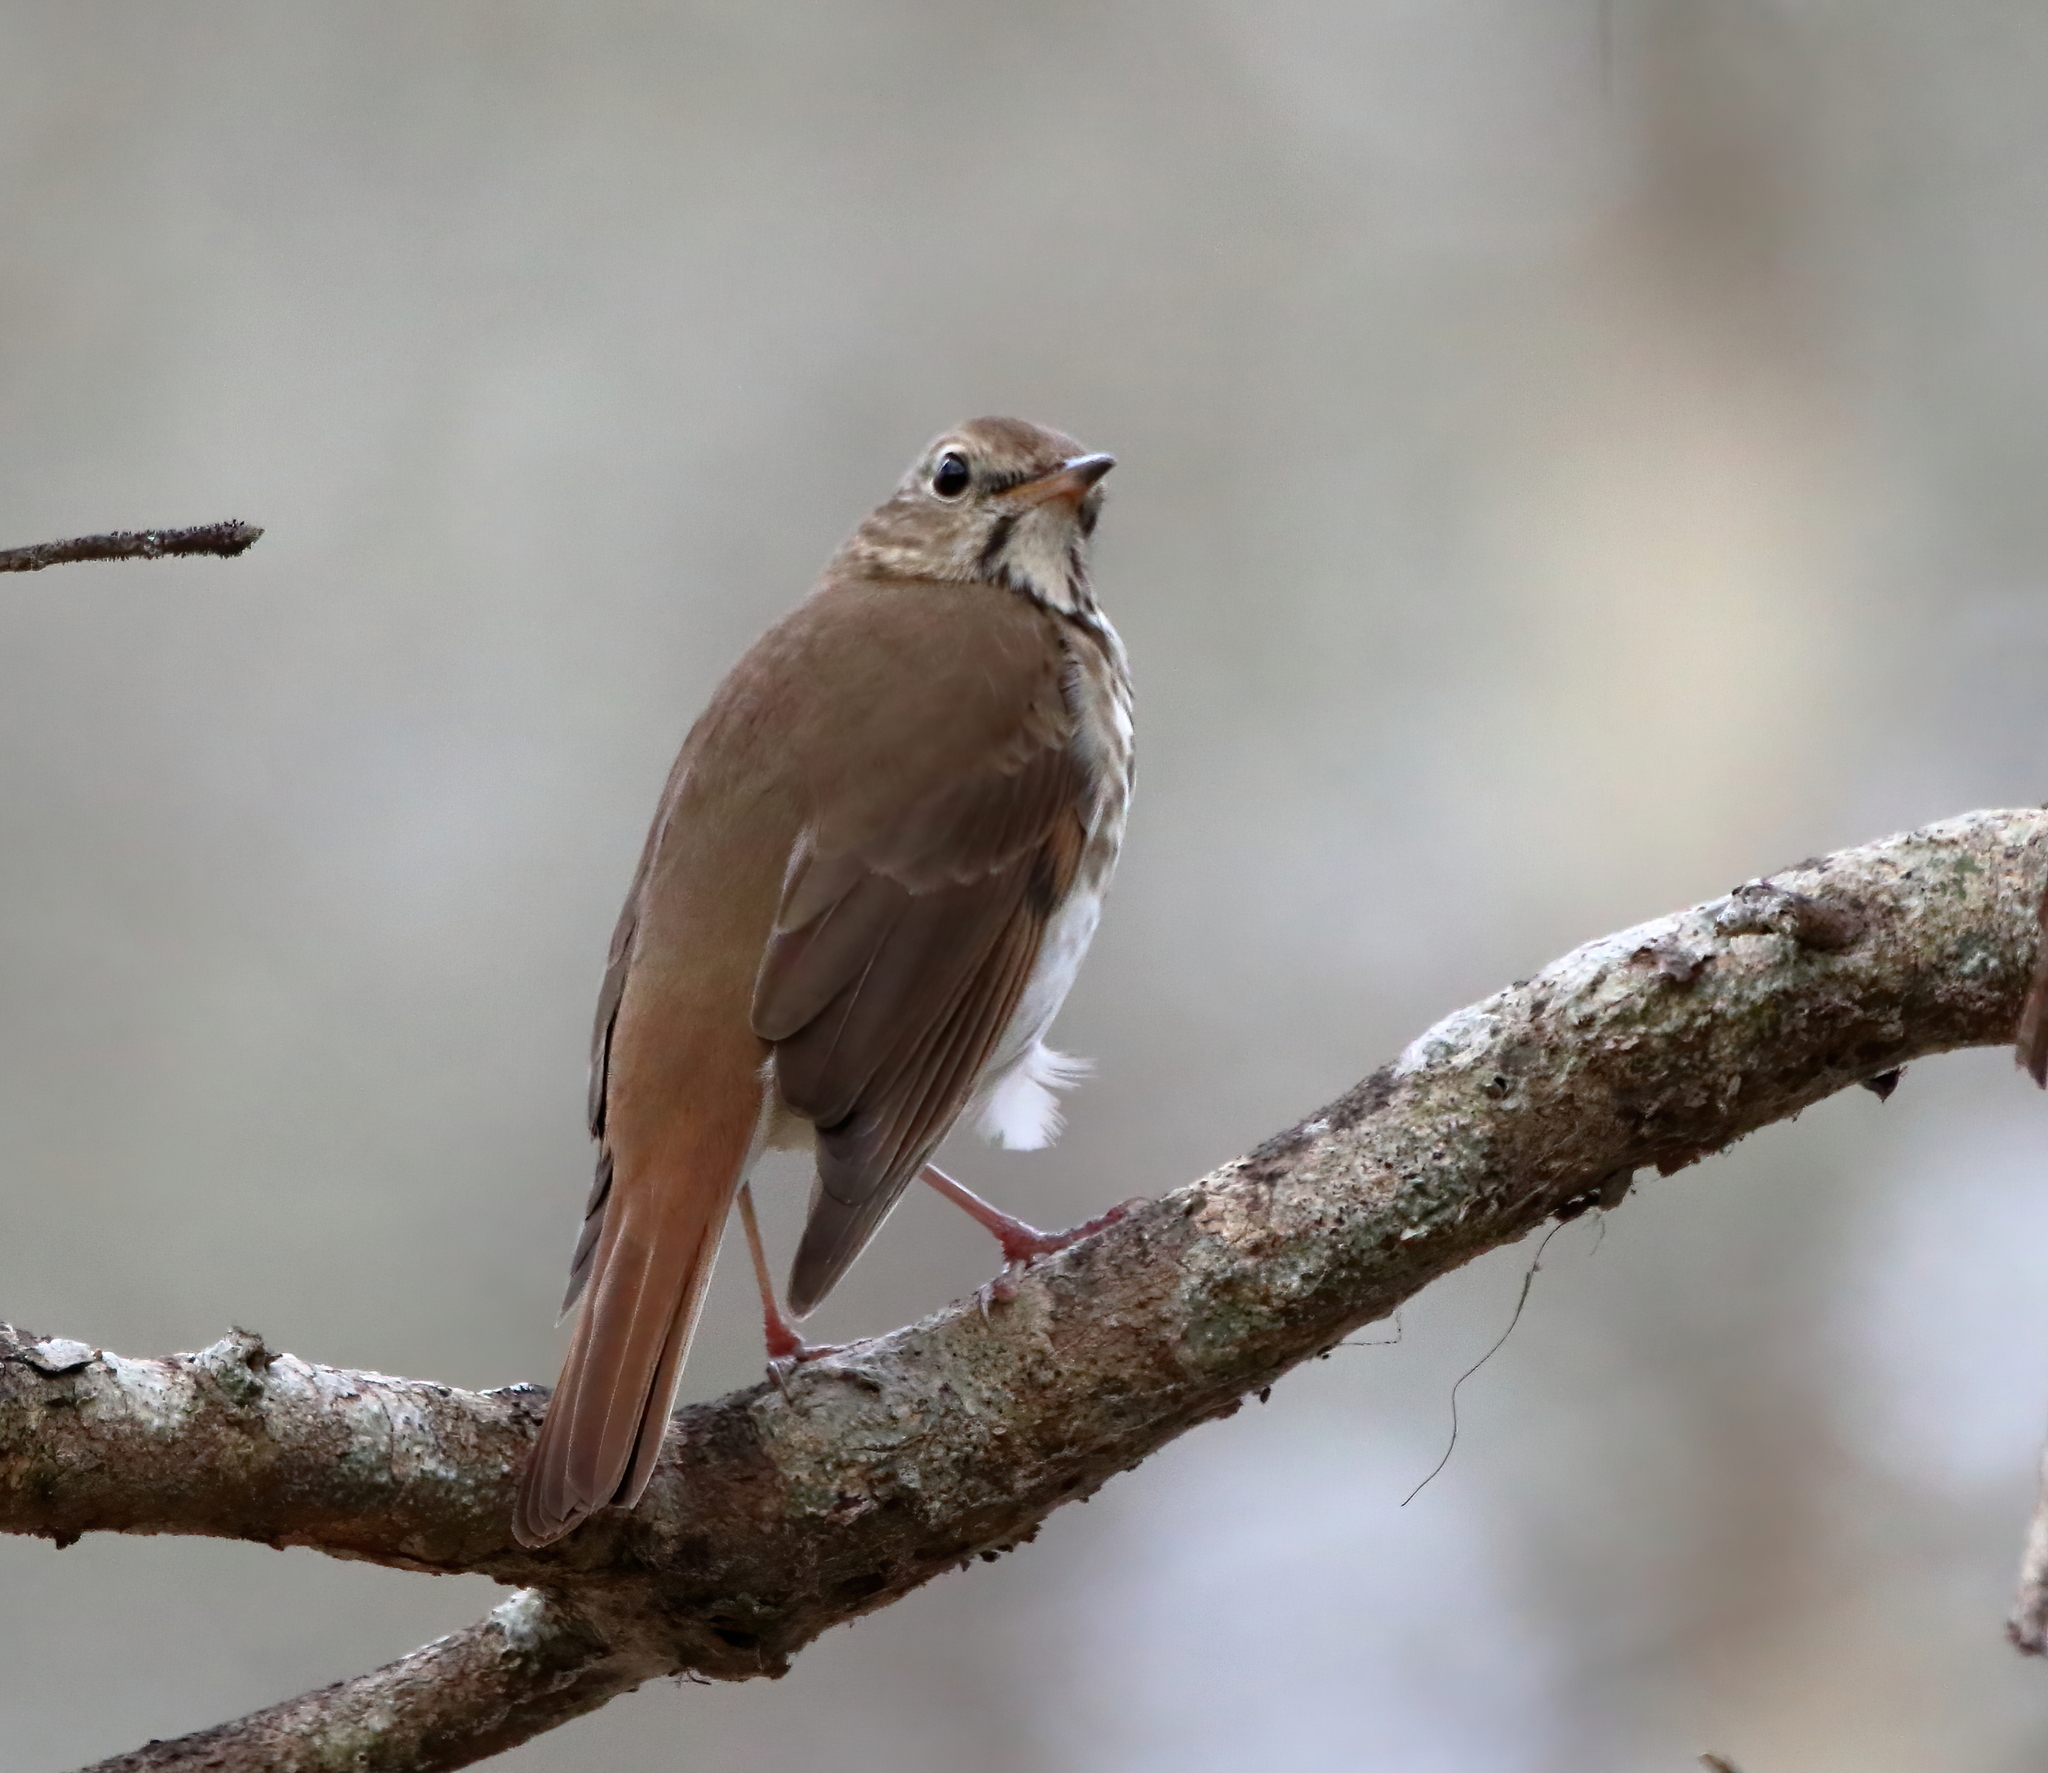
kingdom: Animalia
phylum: Chordata
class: Aves
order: Passeriformes
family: Turdidae
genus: Catharus
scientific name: Catharus guttatus
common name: Hermit thrush
